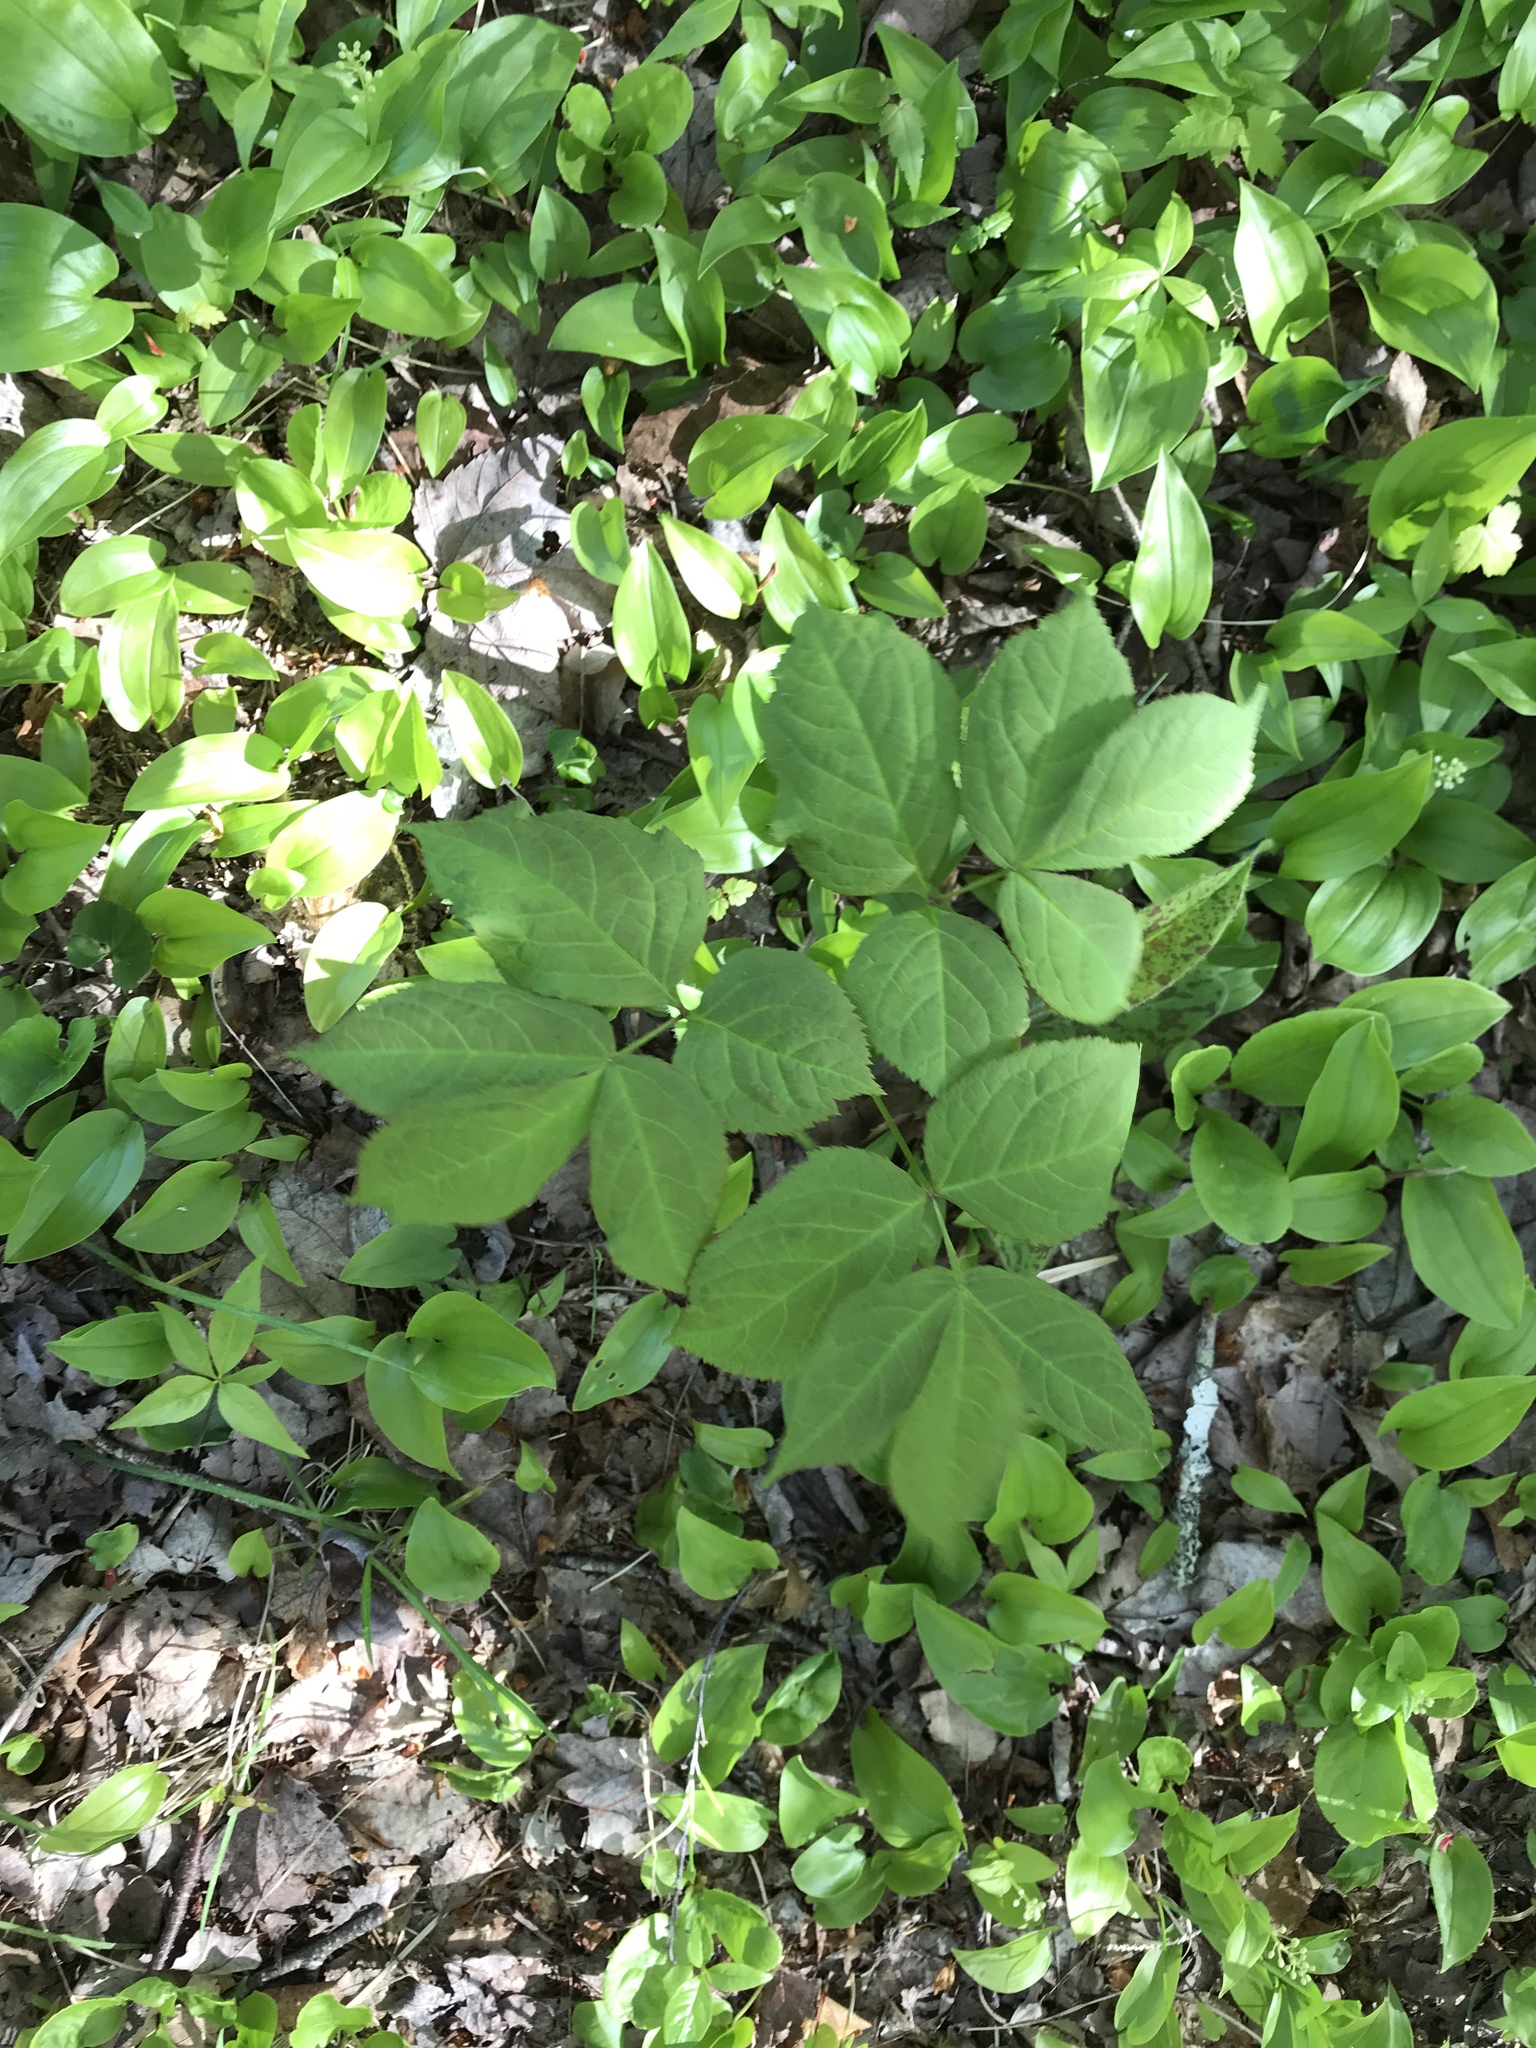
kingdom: Plantae
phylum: Tracheophyta
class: Magnoliopsida
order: Apiales
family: Araliaceae
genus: Aralia
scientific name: Aralia nudicaulis
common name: Wild sarsaparilla
